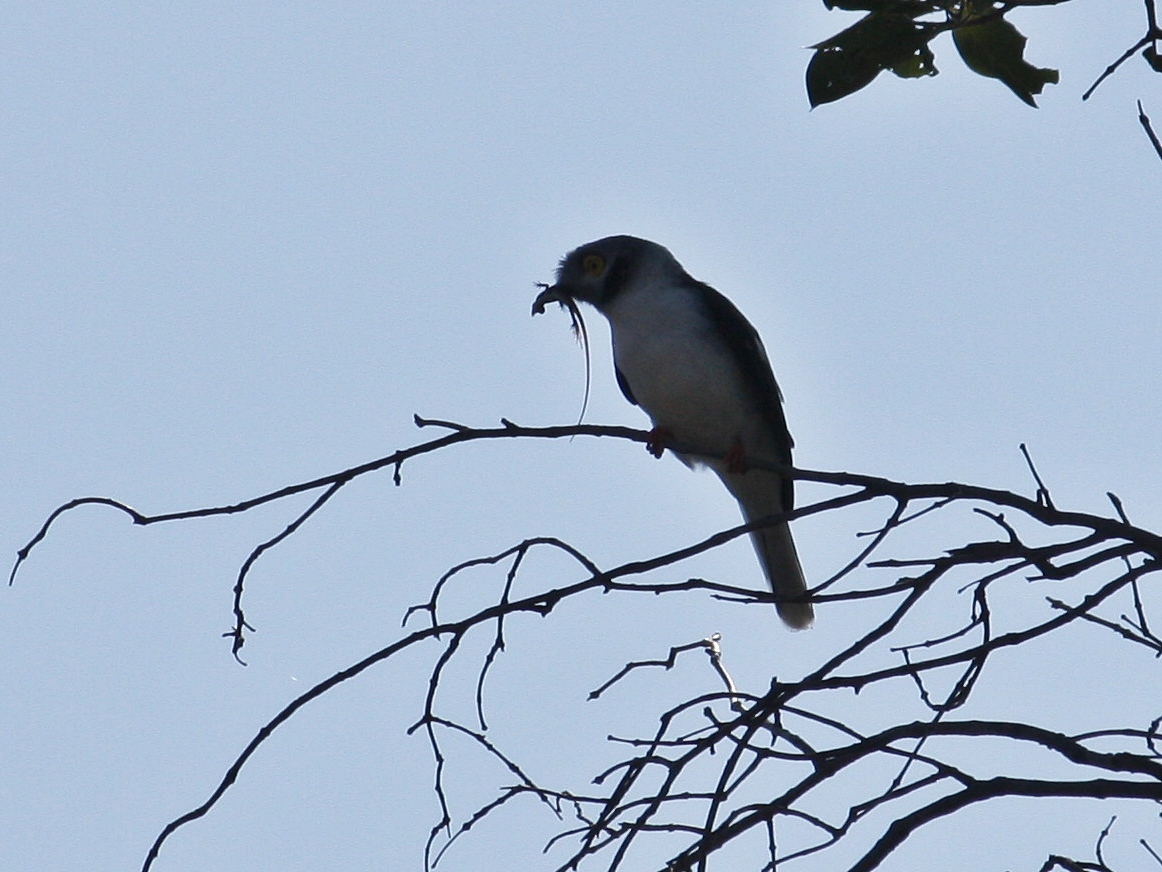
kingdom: Animalia
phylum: Chordata
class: Aves
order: Passeriformes
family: Prionopidae
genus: Prionops
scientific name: Prionops plumatus
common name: White-crested helmetshrike
